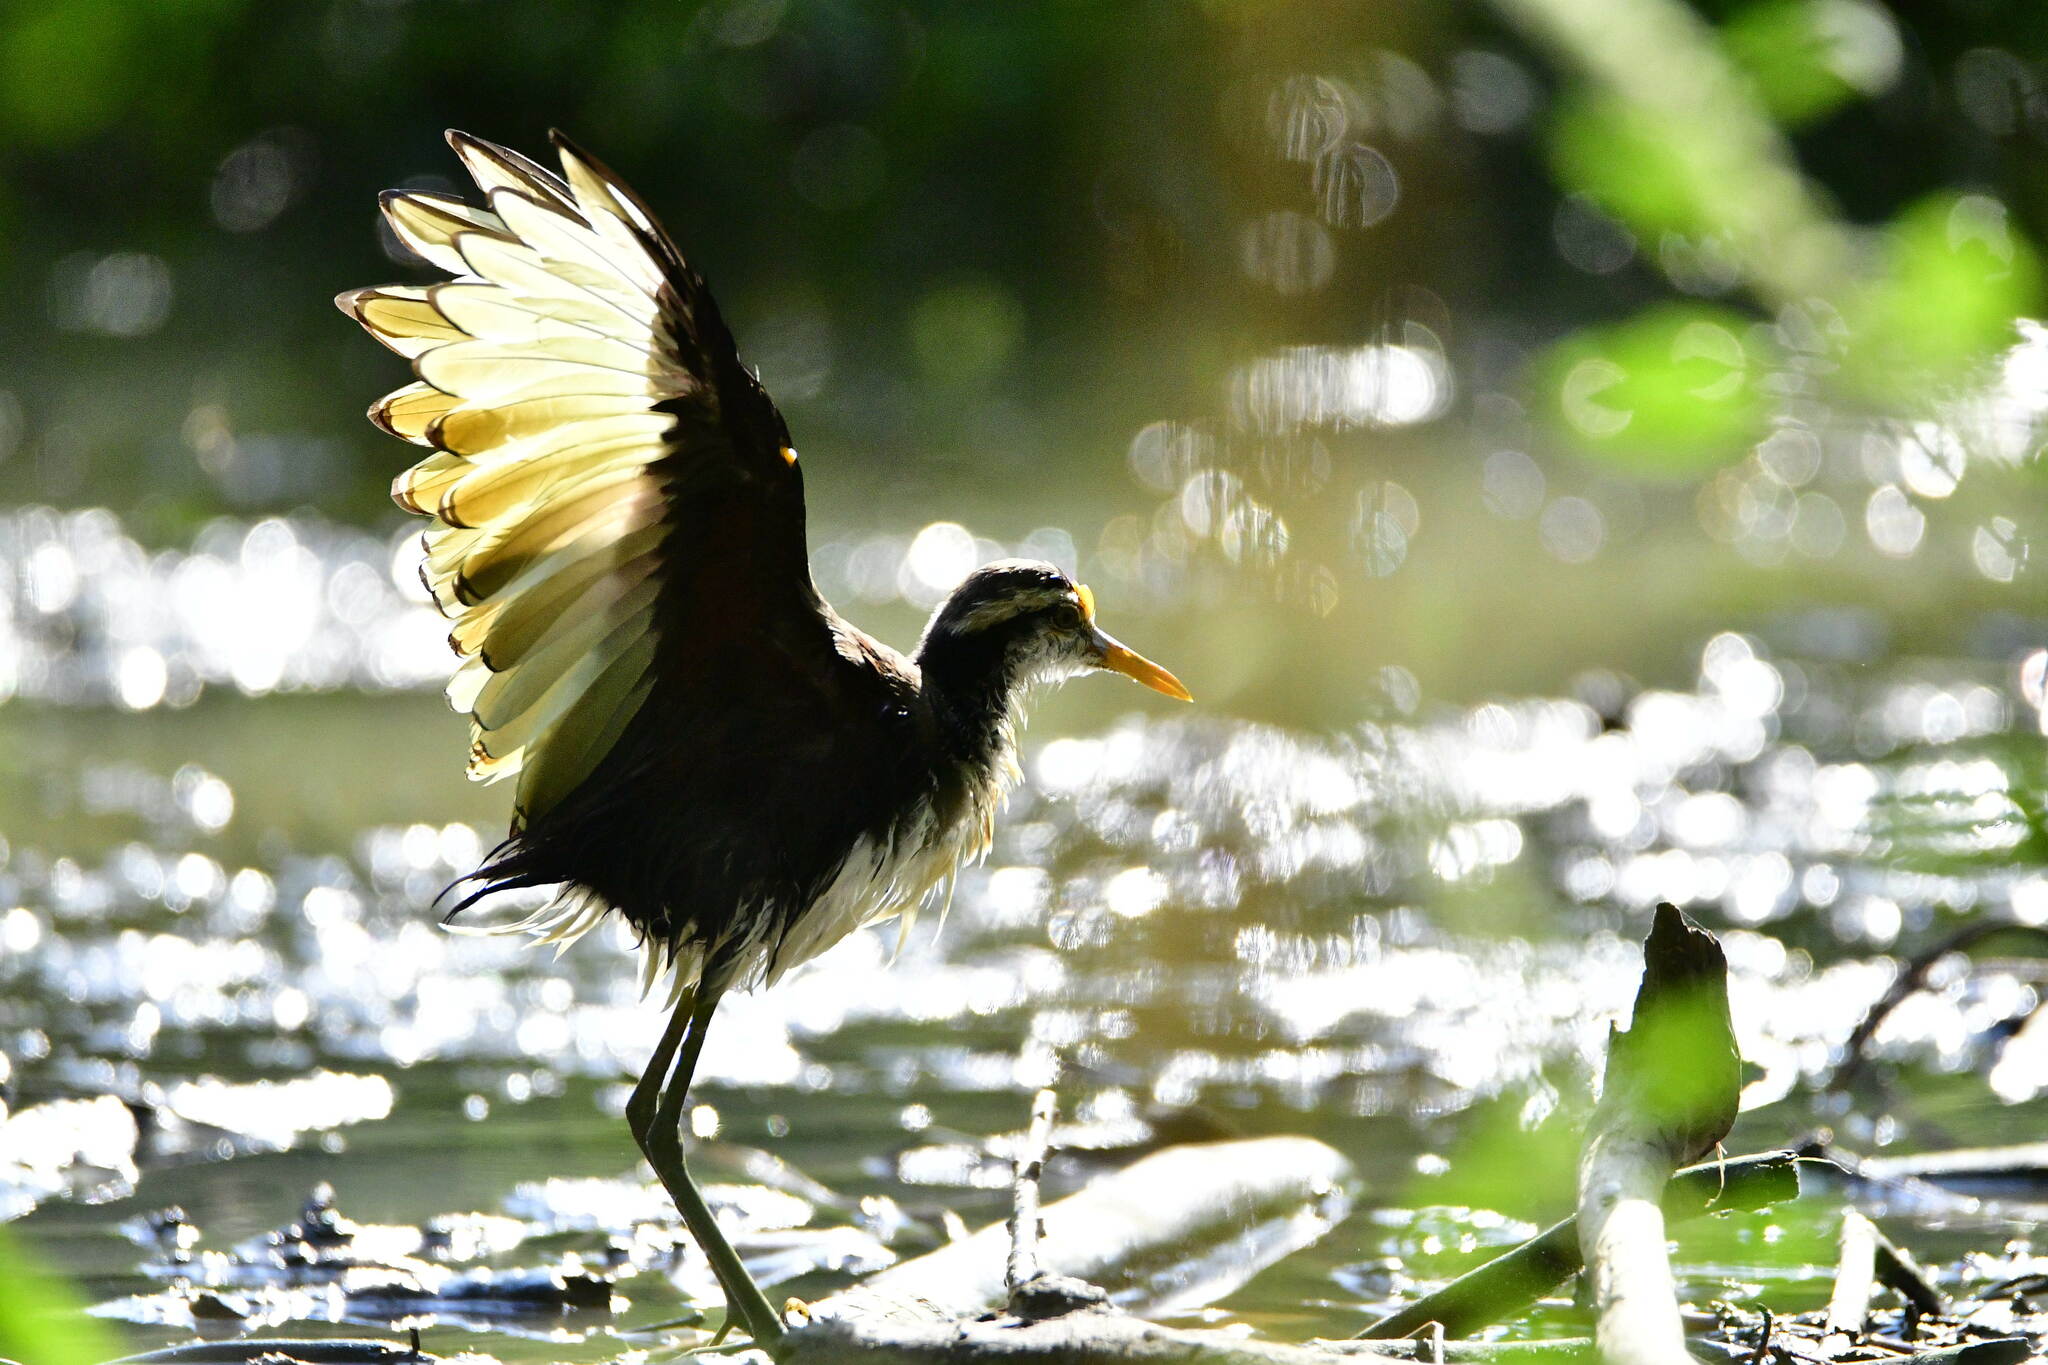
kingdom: Animalia
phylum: Chordata
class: Aves
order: Charadriiformes
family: Jacanidae
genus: Jacana
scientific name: Jacana spinosa
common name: Northern jacana
